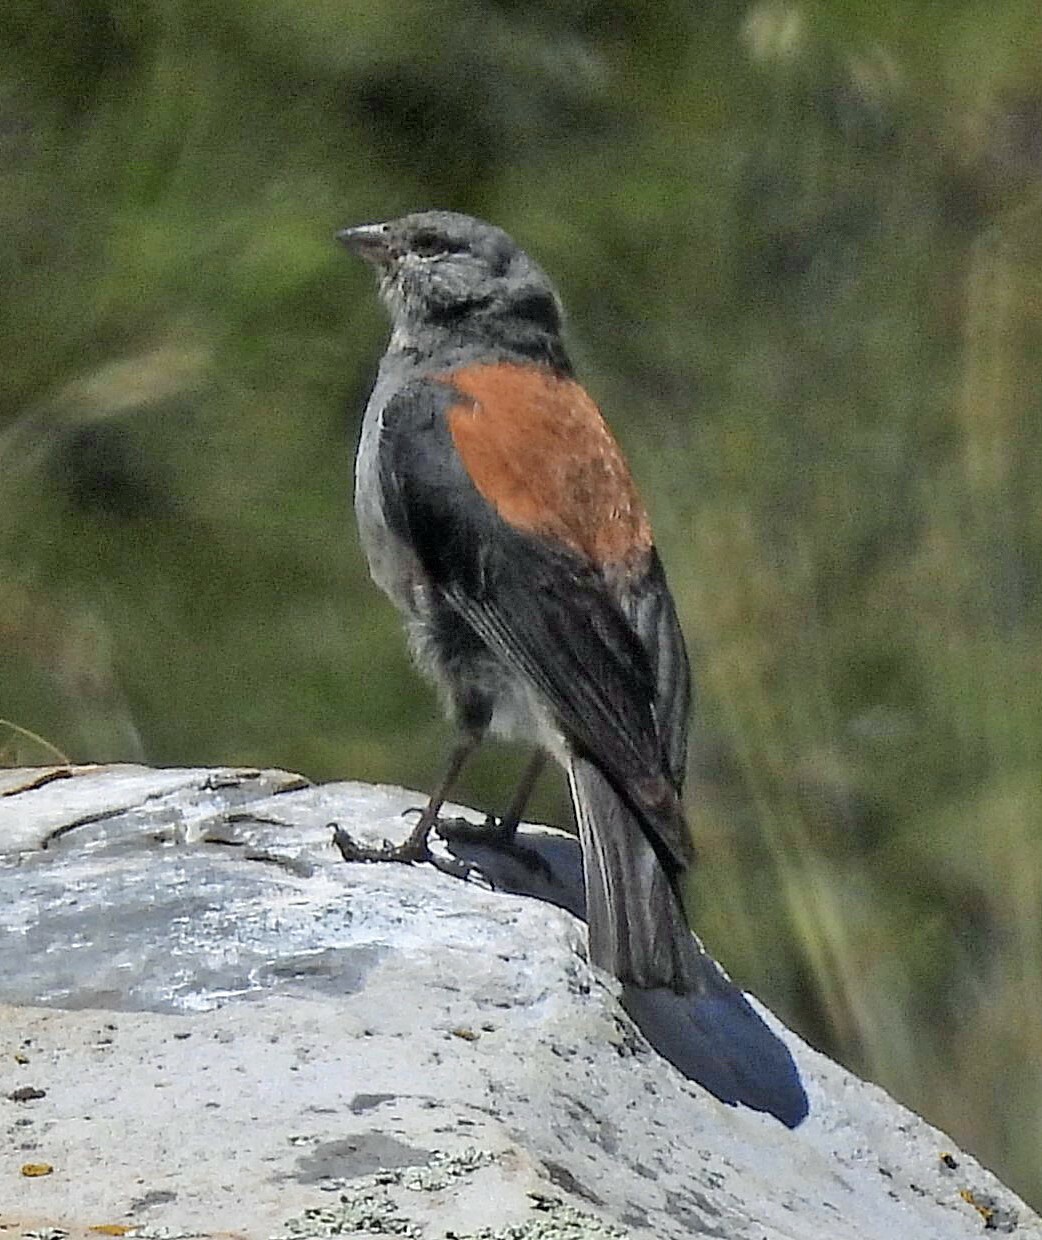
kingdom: Animalia
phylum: Chordata
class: Aves
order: Passeriformes
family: Thraupidae
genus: Idiopsar
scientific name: Idiopsar dorsalis
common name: Red-backed sierra finch
